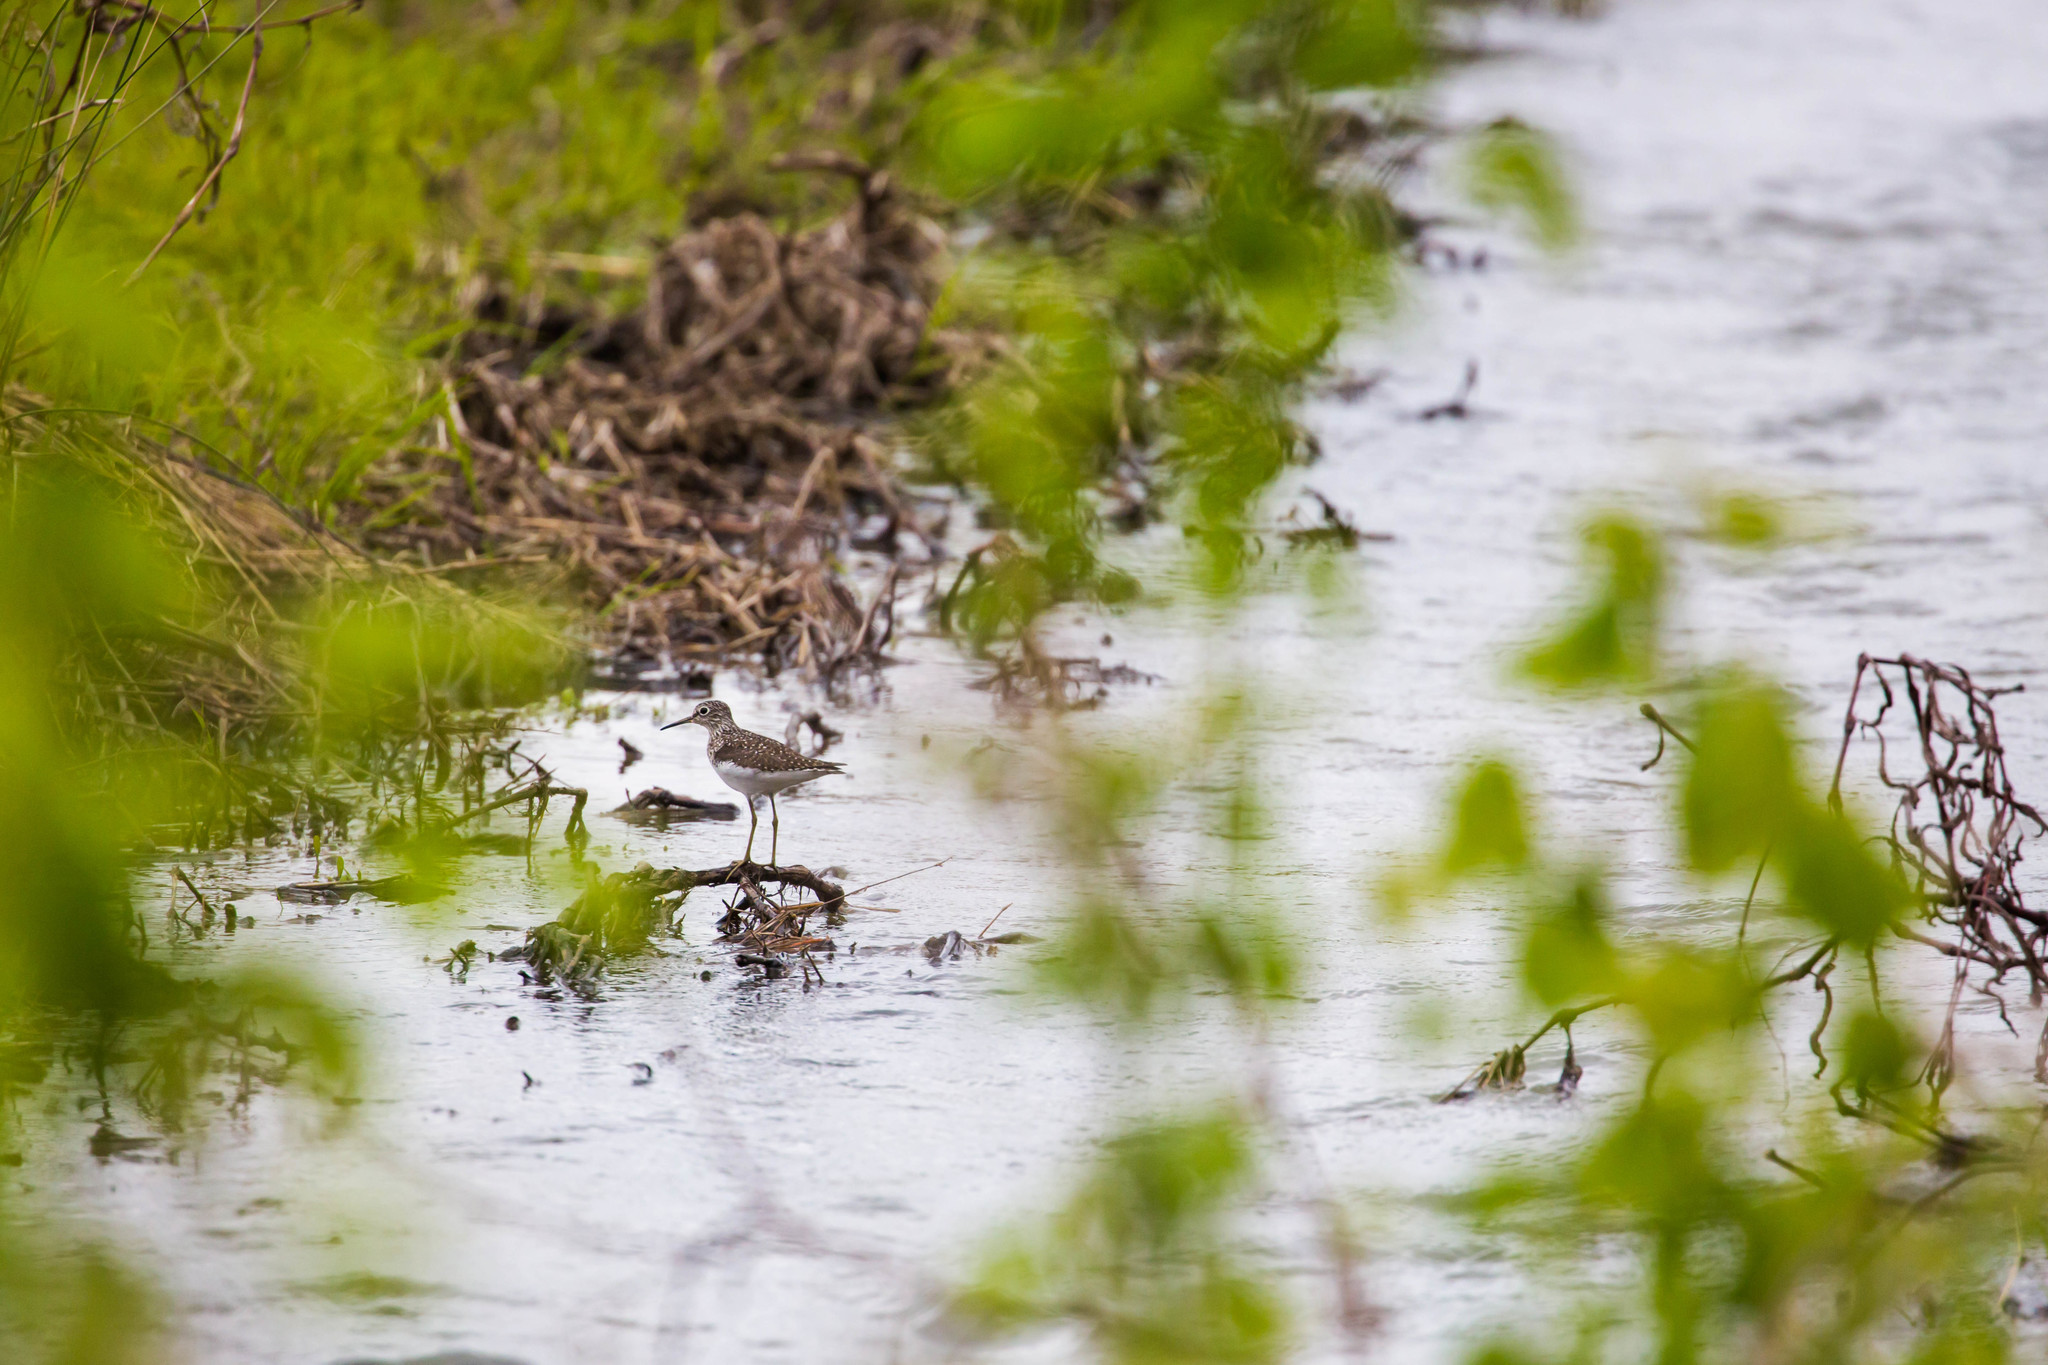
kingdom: Animalia
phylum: Chordata
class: Aves
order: Charadriiformes
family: Scolopacidae
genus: Tringa
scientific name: Tringa solitaria
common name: Solitary sandpiper
